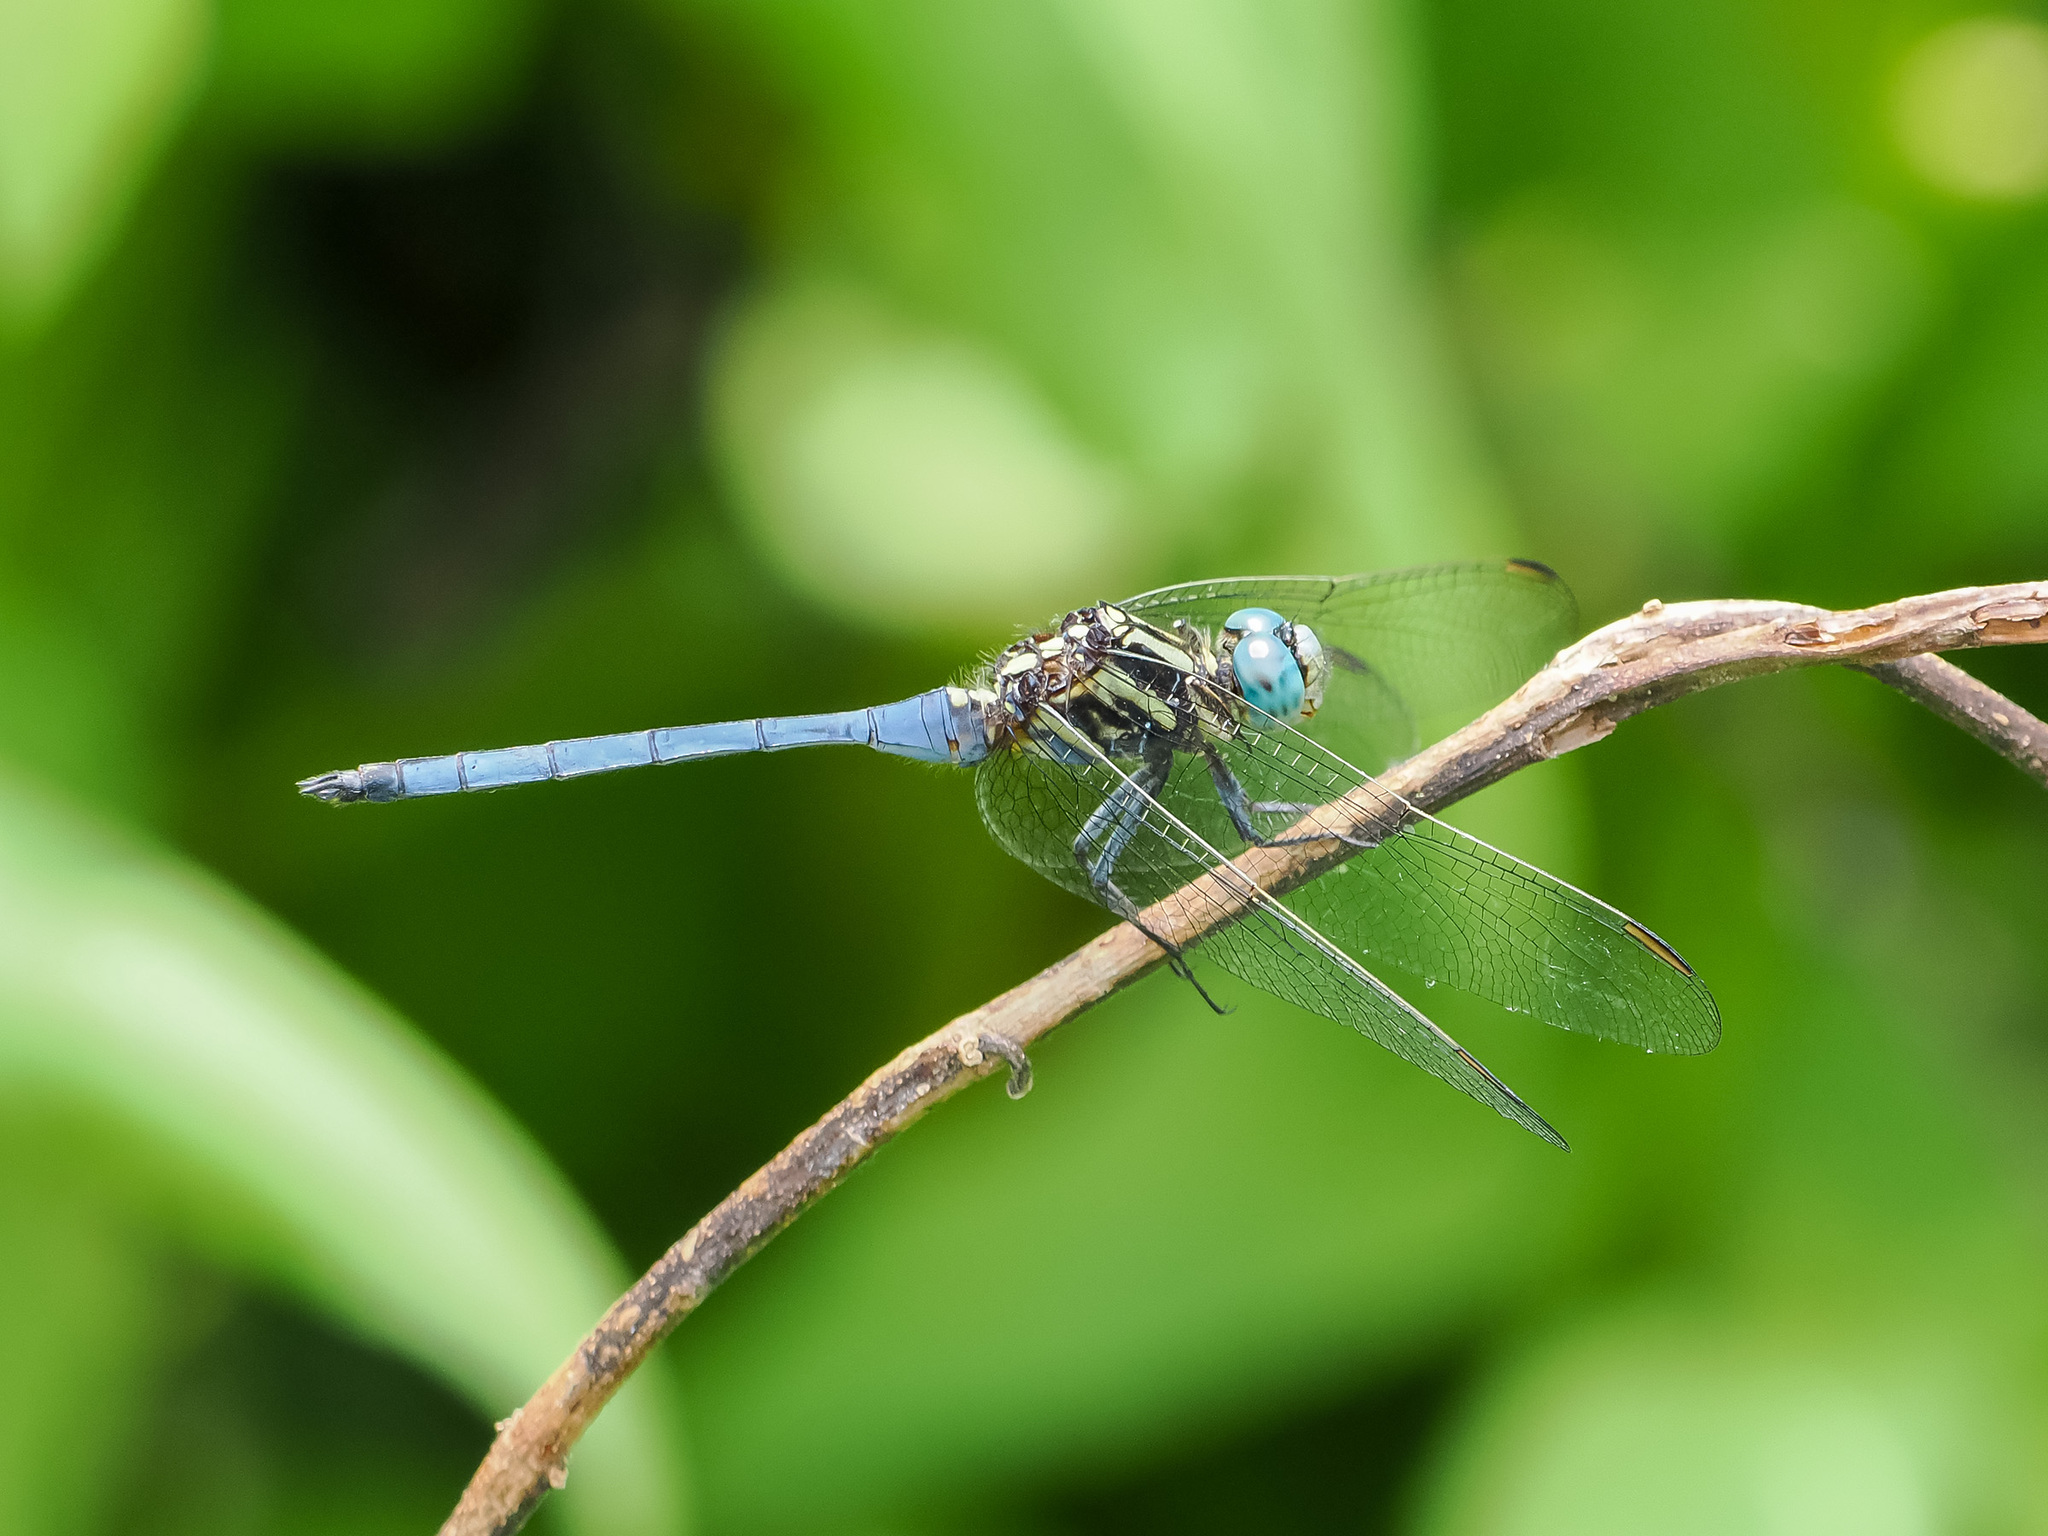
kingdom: Animalia
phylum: Arthropoda
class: Insecta
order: Odonata
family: Libellulidae
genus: Orthetrum
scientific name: Orthetrum luzonicum
